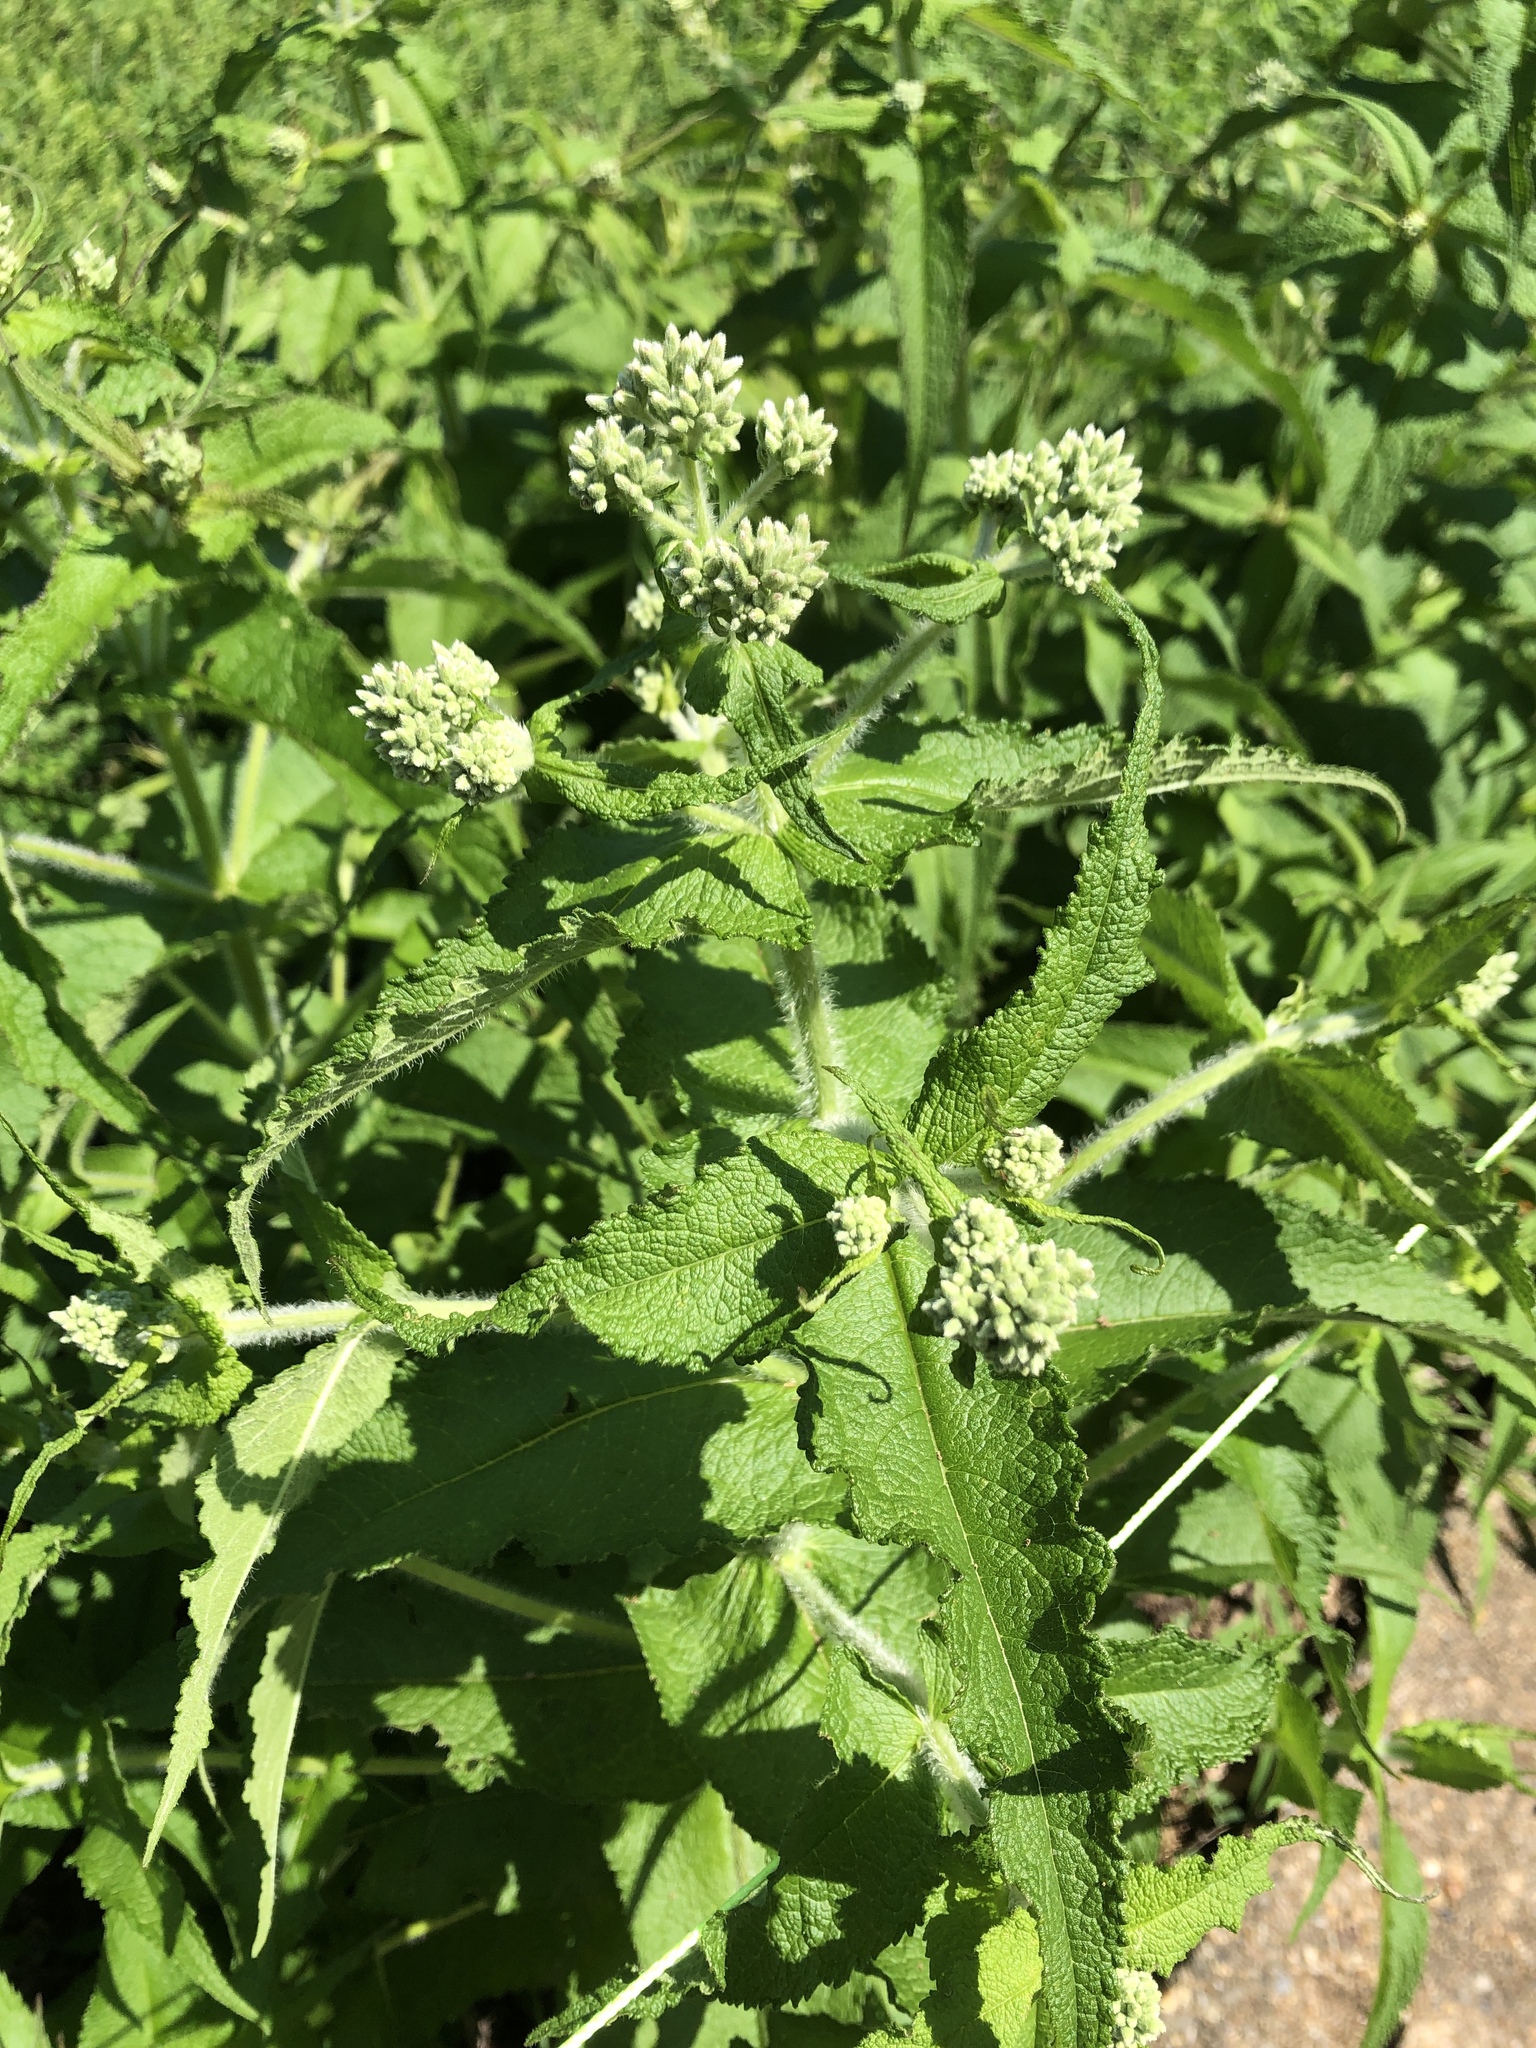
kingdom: Plantae
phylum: Tracheophyta
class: Magnoliopsida
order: Asterales
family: Asteraceae
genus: Eupatorium
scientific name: Eupatorium perfoliatum
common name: Boneset
